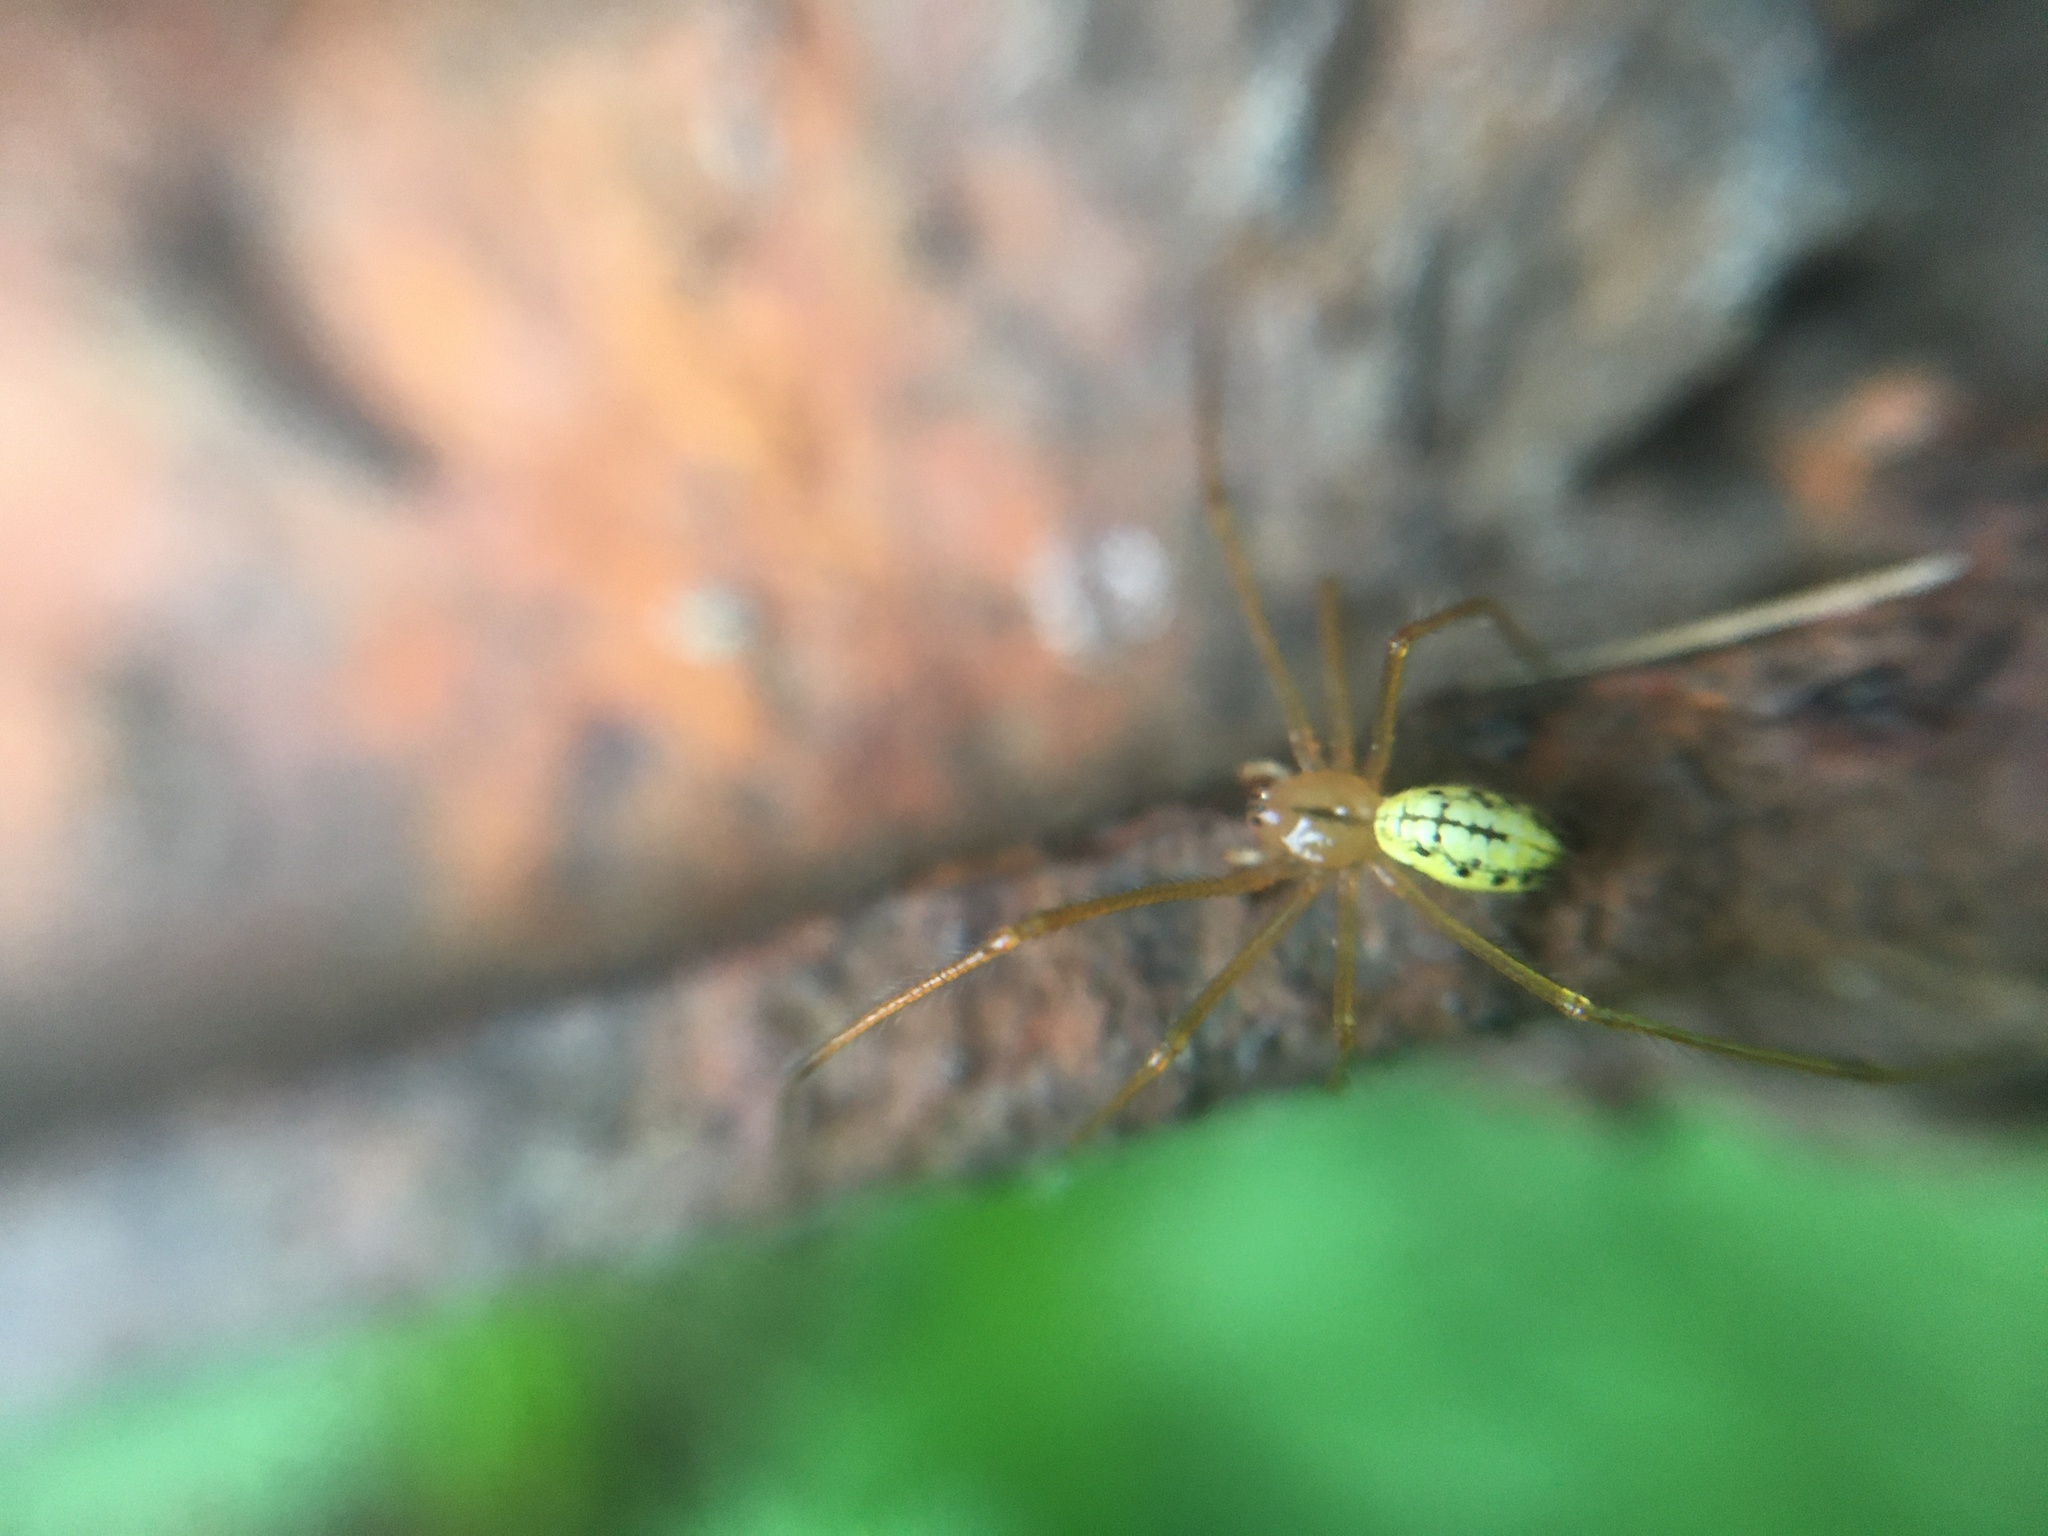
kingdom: Animalia
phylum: Arthropoda
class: Arachnida
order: Araneae
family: Theridiidae
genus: Enoplognatha
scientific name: Enoplognatha
